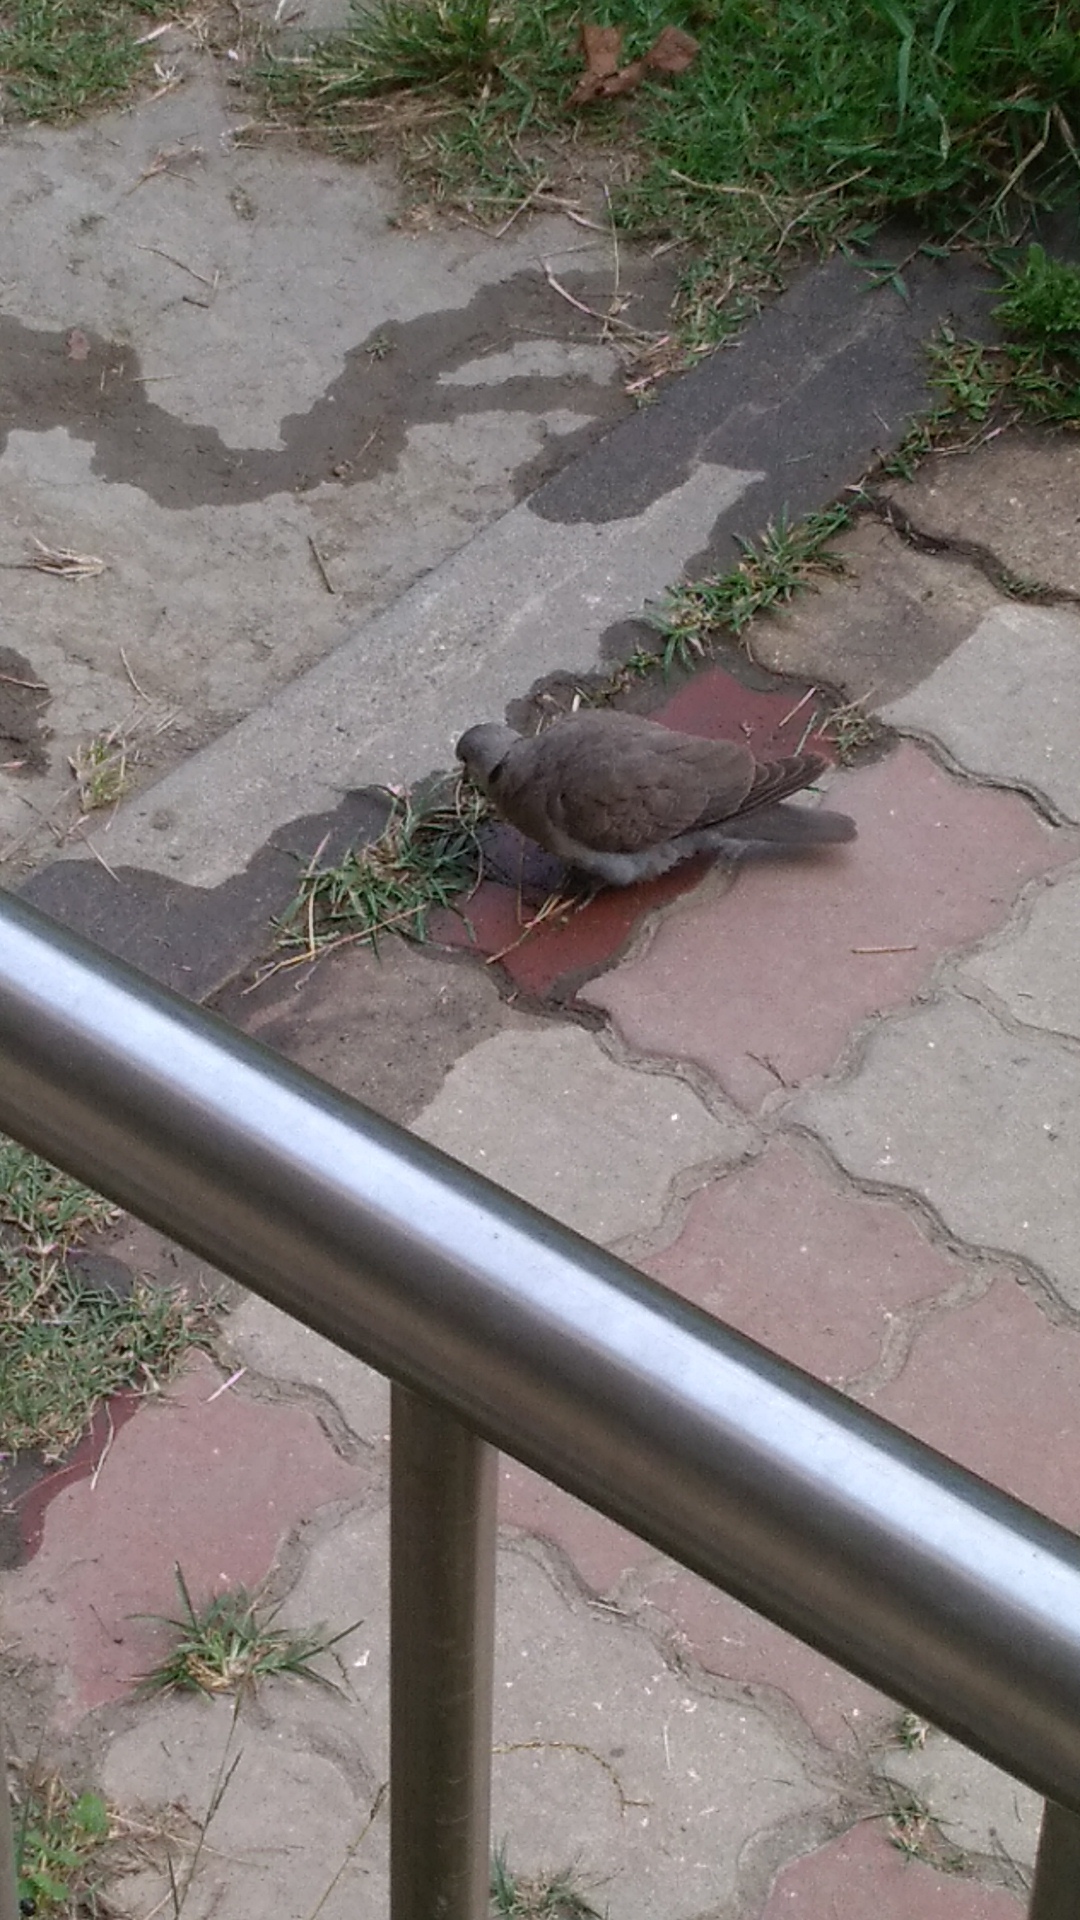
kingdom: Animalia
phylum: Chordata
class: Aves
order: Columbiformes
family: Columbidae
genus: Streptopelia
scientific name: Streptopelia tranquebarica
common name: Red turtle dove
